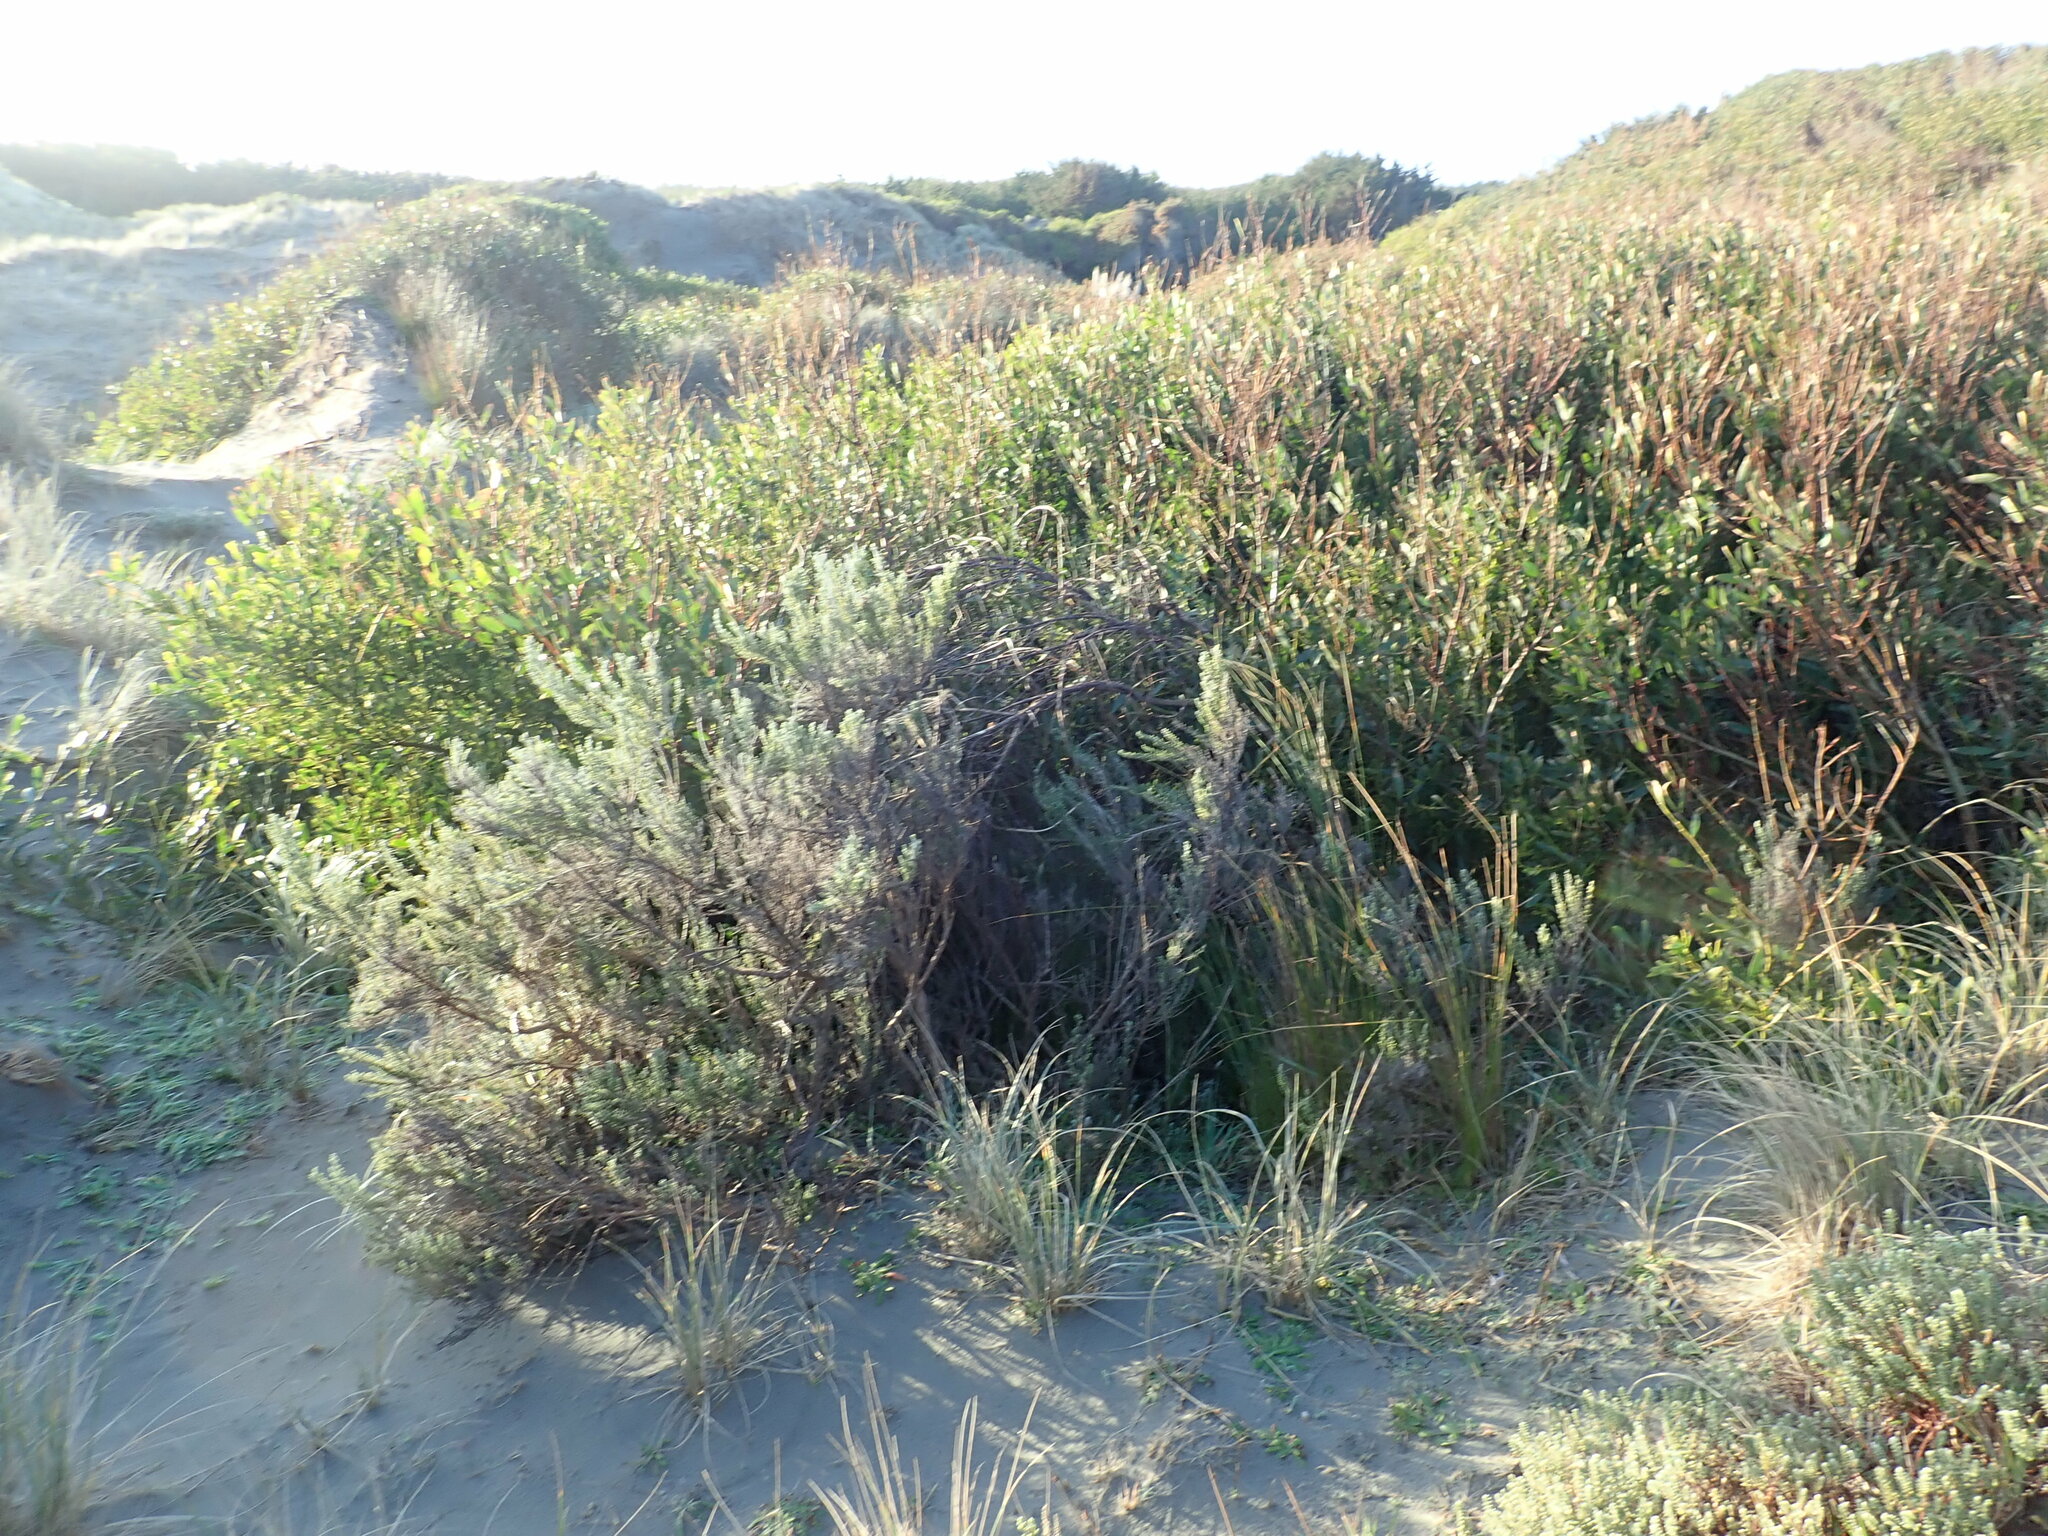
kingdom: Plantae
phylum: Tracheophyta
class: Magnoliopsida
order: Fabales
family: Fabaceae
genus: Acacia
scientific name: Acacia longifolia
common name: Sydney golden wattle
